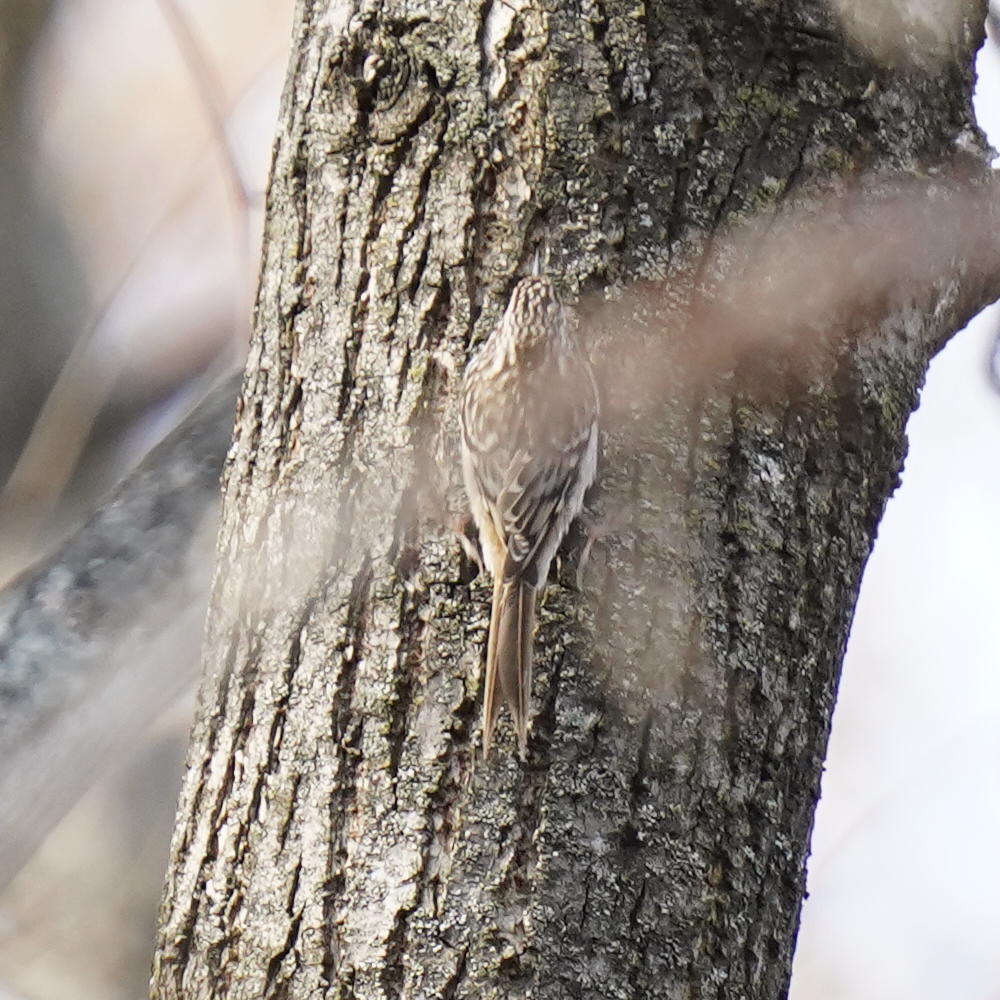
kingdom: Animalia
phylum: Chordata
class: Aves
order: Passeriformes
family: Certhiidae
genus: Certhia
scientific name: Certhia americana
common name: Brown creeper
